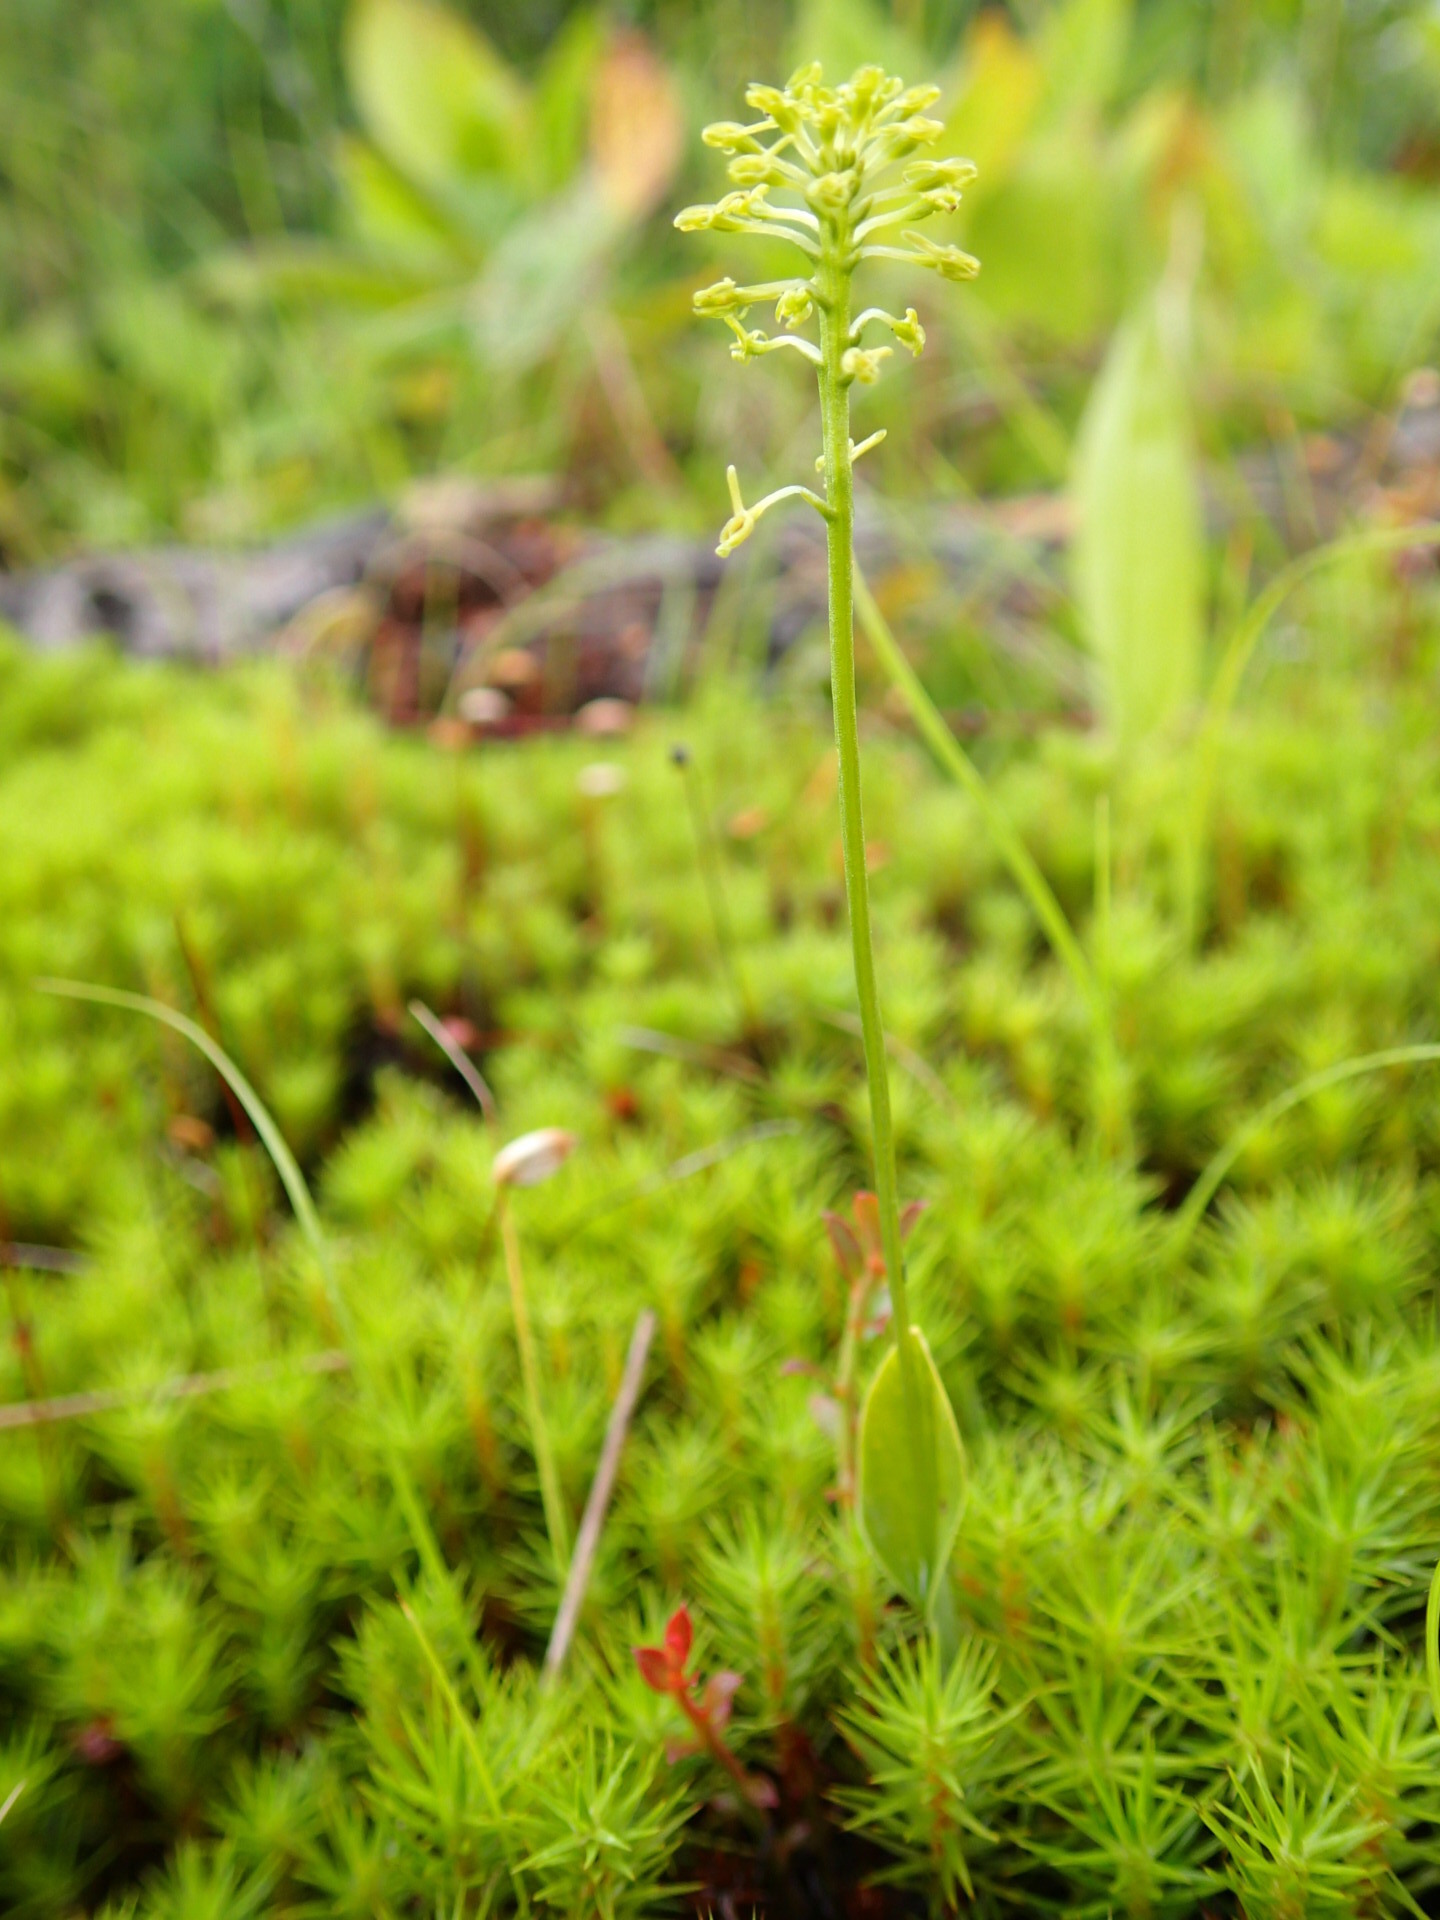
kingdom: Plantae
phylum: Tracheophyta
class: Liliopsida
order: Asparagales
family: Orchidaceae
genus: Malaxis
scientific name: Malaxis unifolia
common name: Green adder's-mouth
